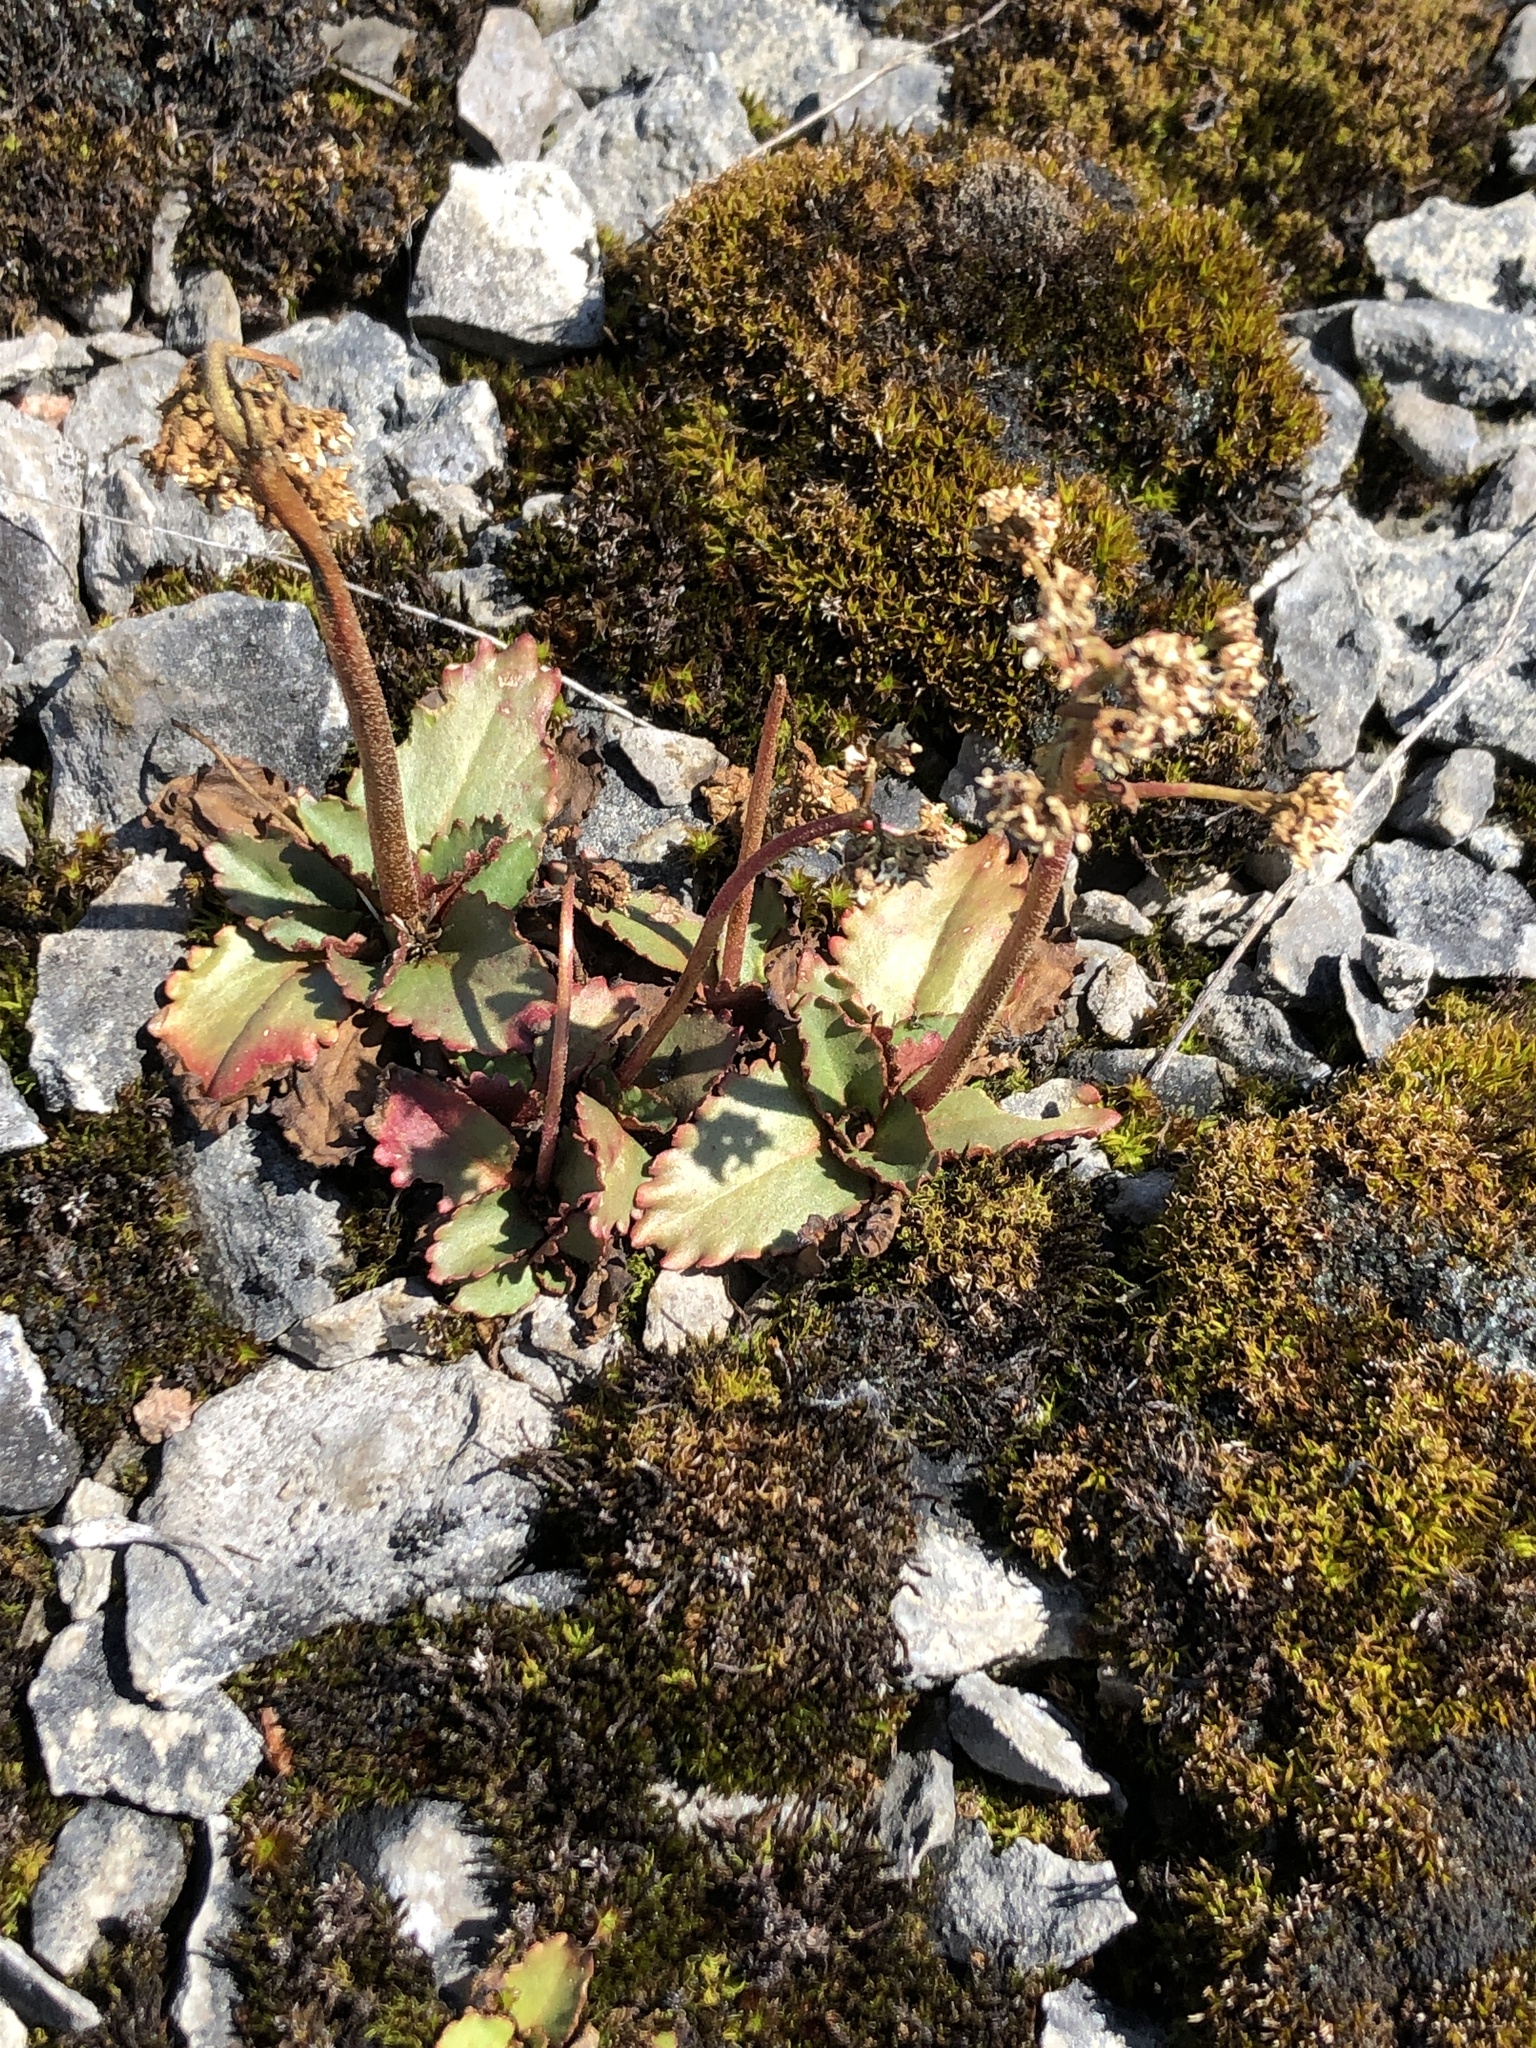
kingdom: Plantae
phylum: Tracheophyta
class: Magnoliopsida
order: Saxifragales
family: Saxifragaceae
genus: Micranthes
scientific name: Micranthes virginiensis
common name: Early saxifrage
